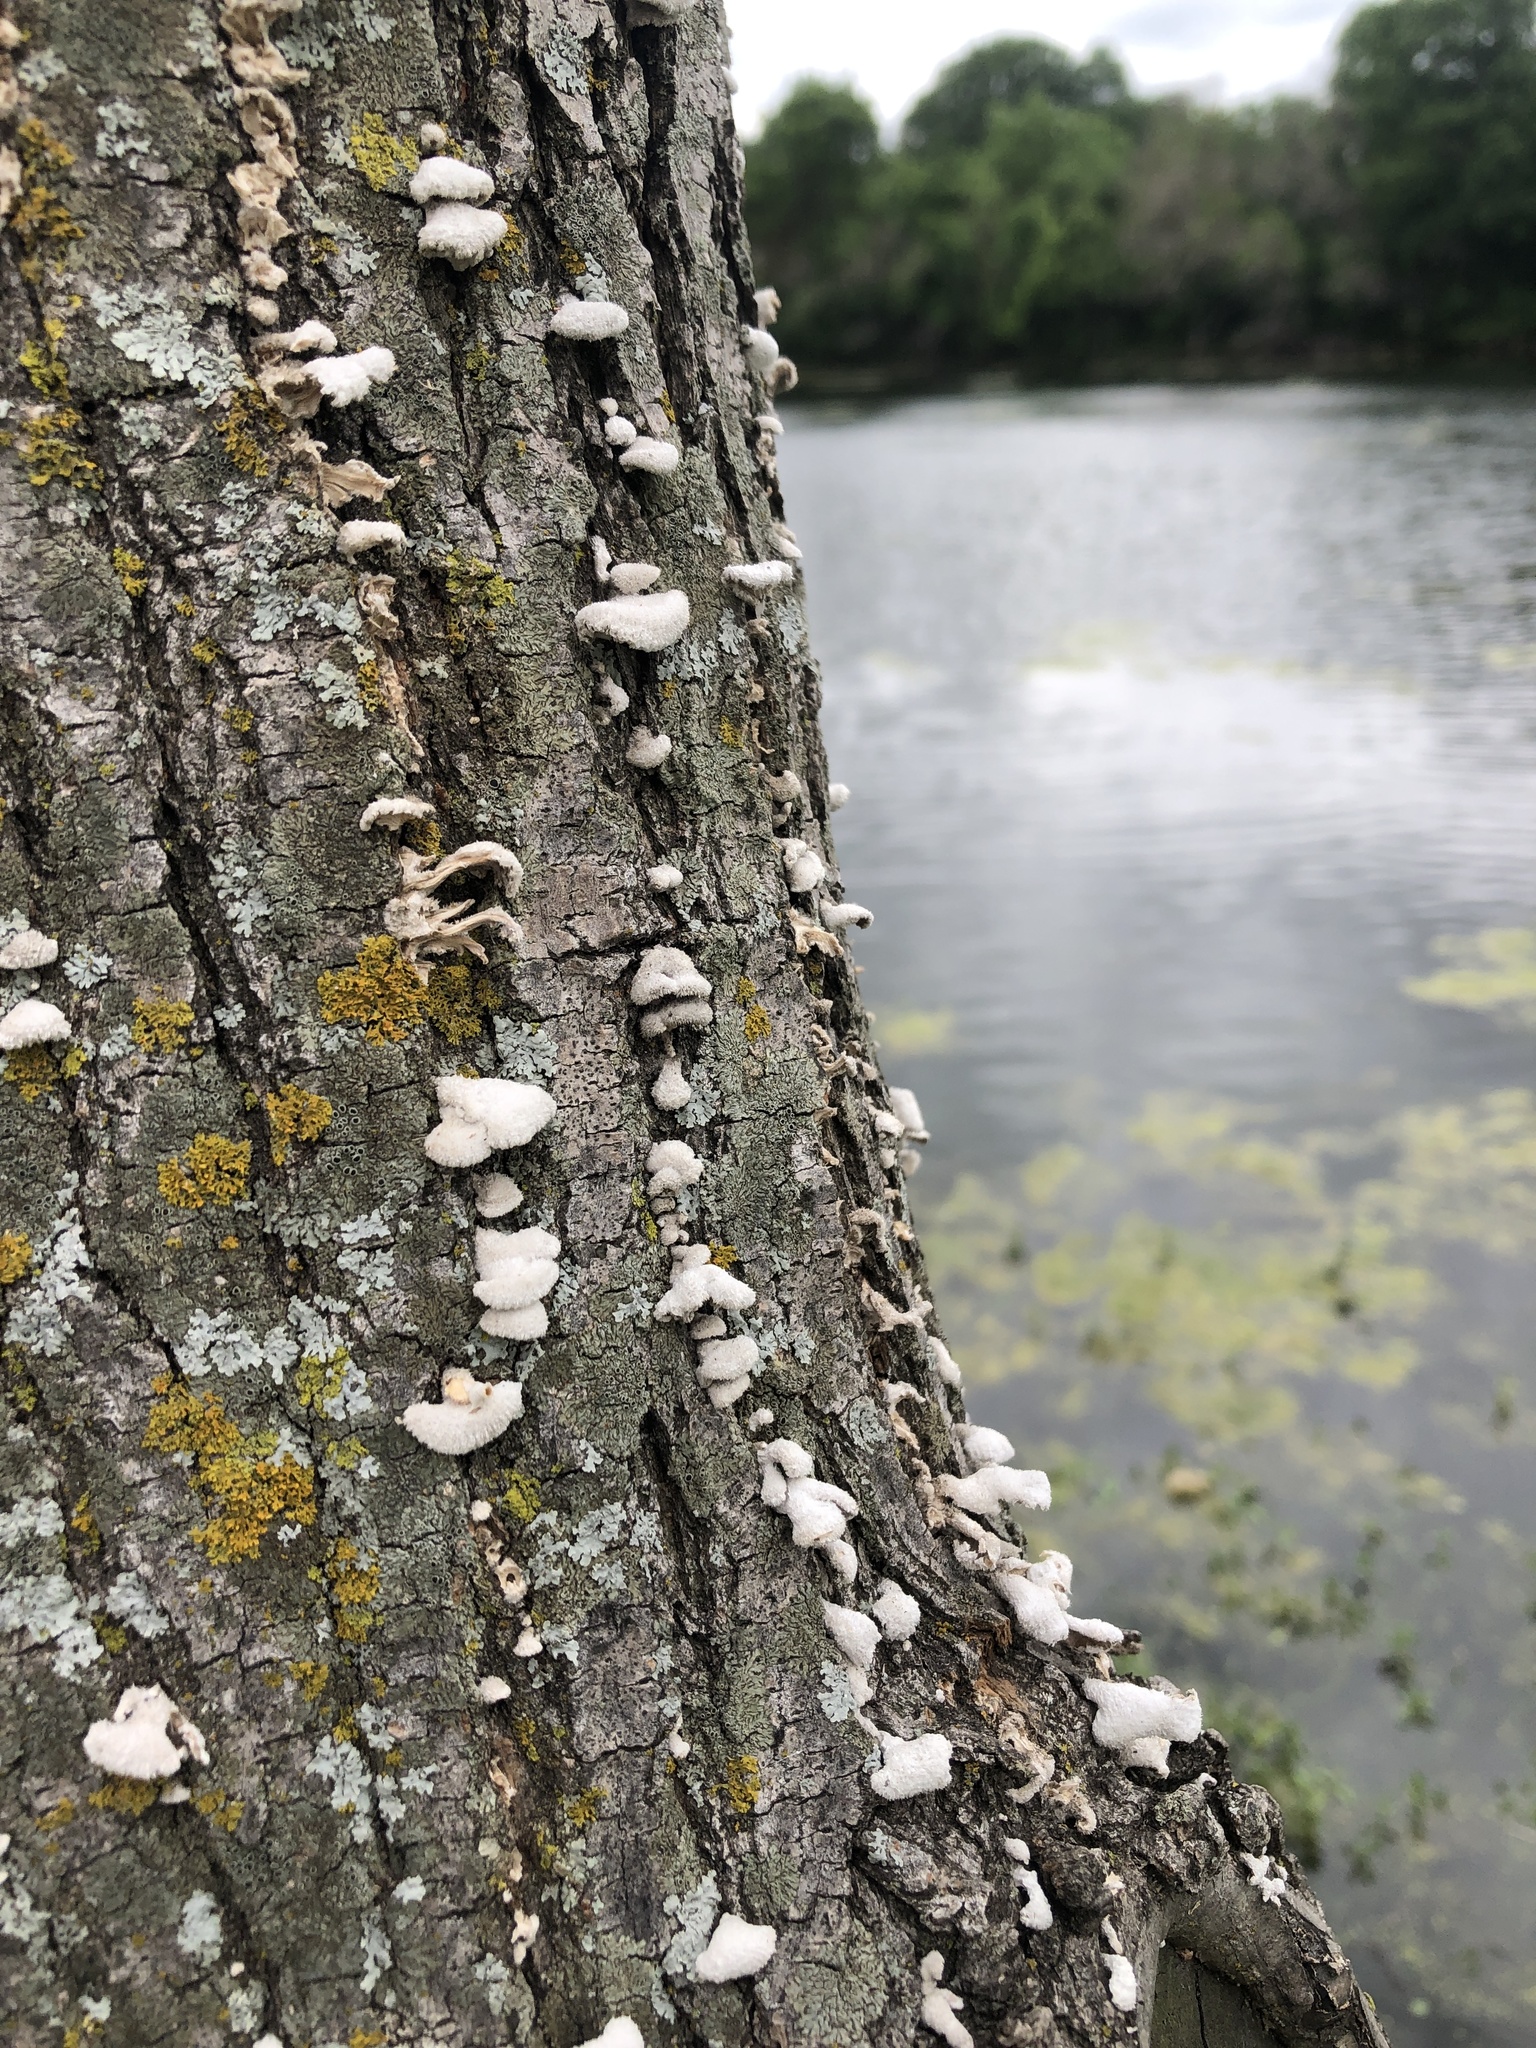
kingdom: Fungi
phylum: Basidiomycota
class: Agaricomycetes
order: Agaricales
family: Schizophyllaceae
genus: Schizophyllum
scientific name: Schizophyllum commune
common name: Common porecrust
